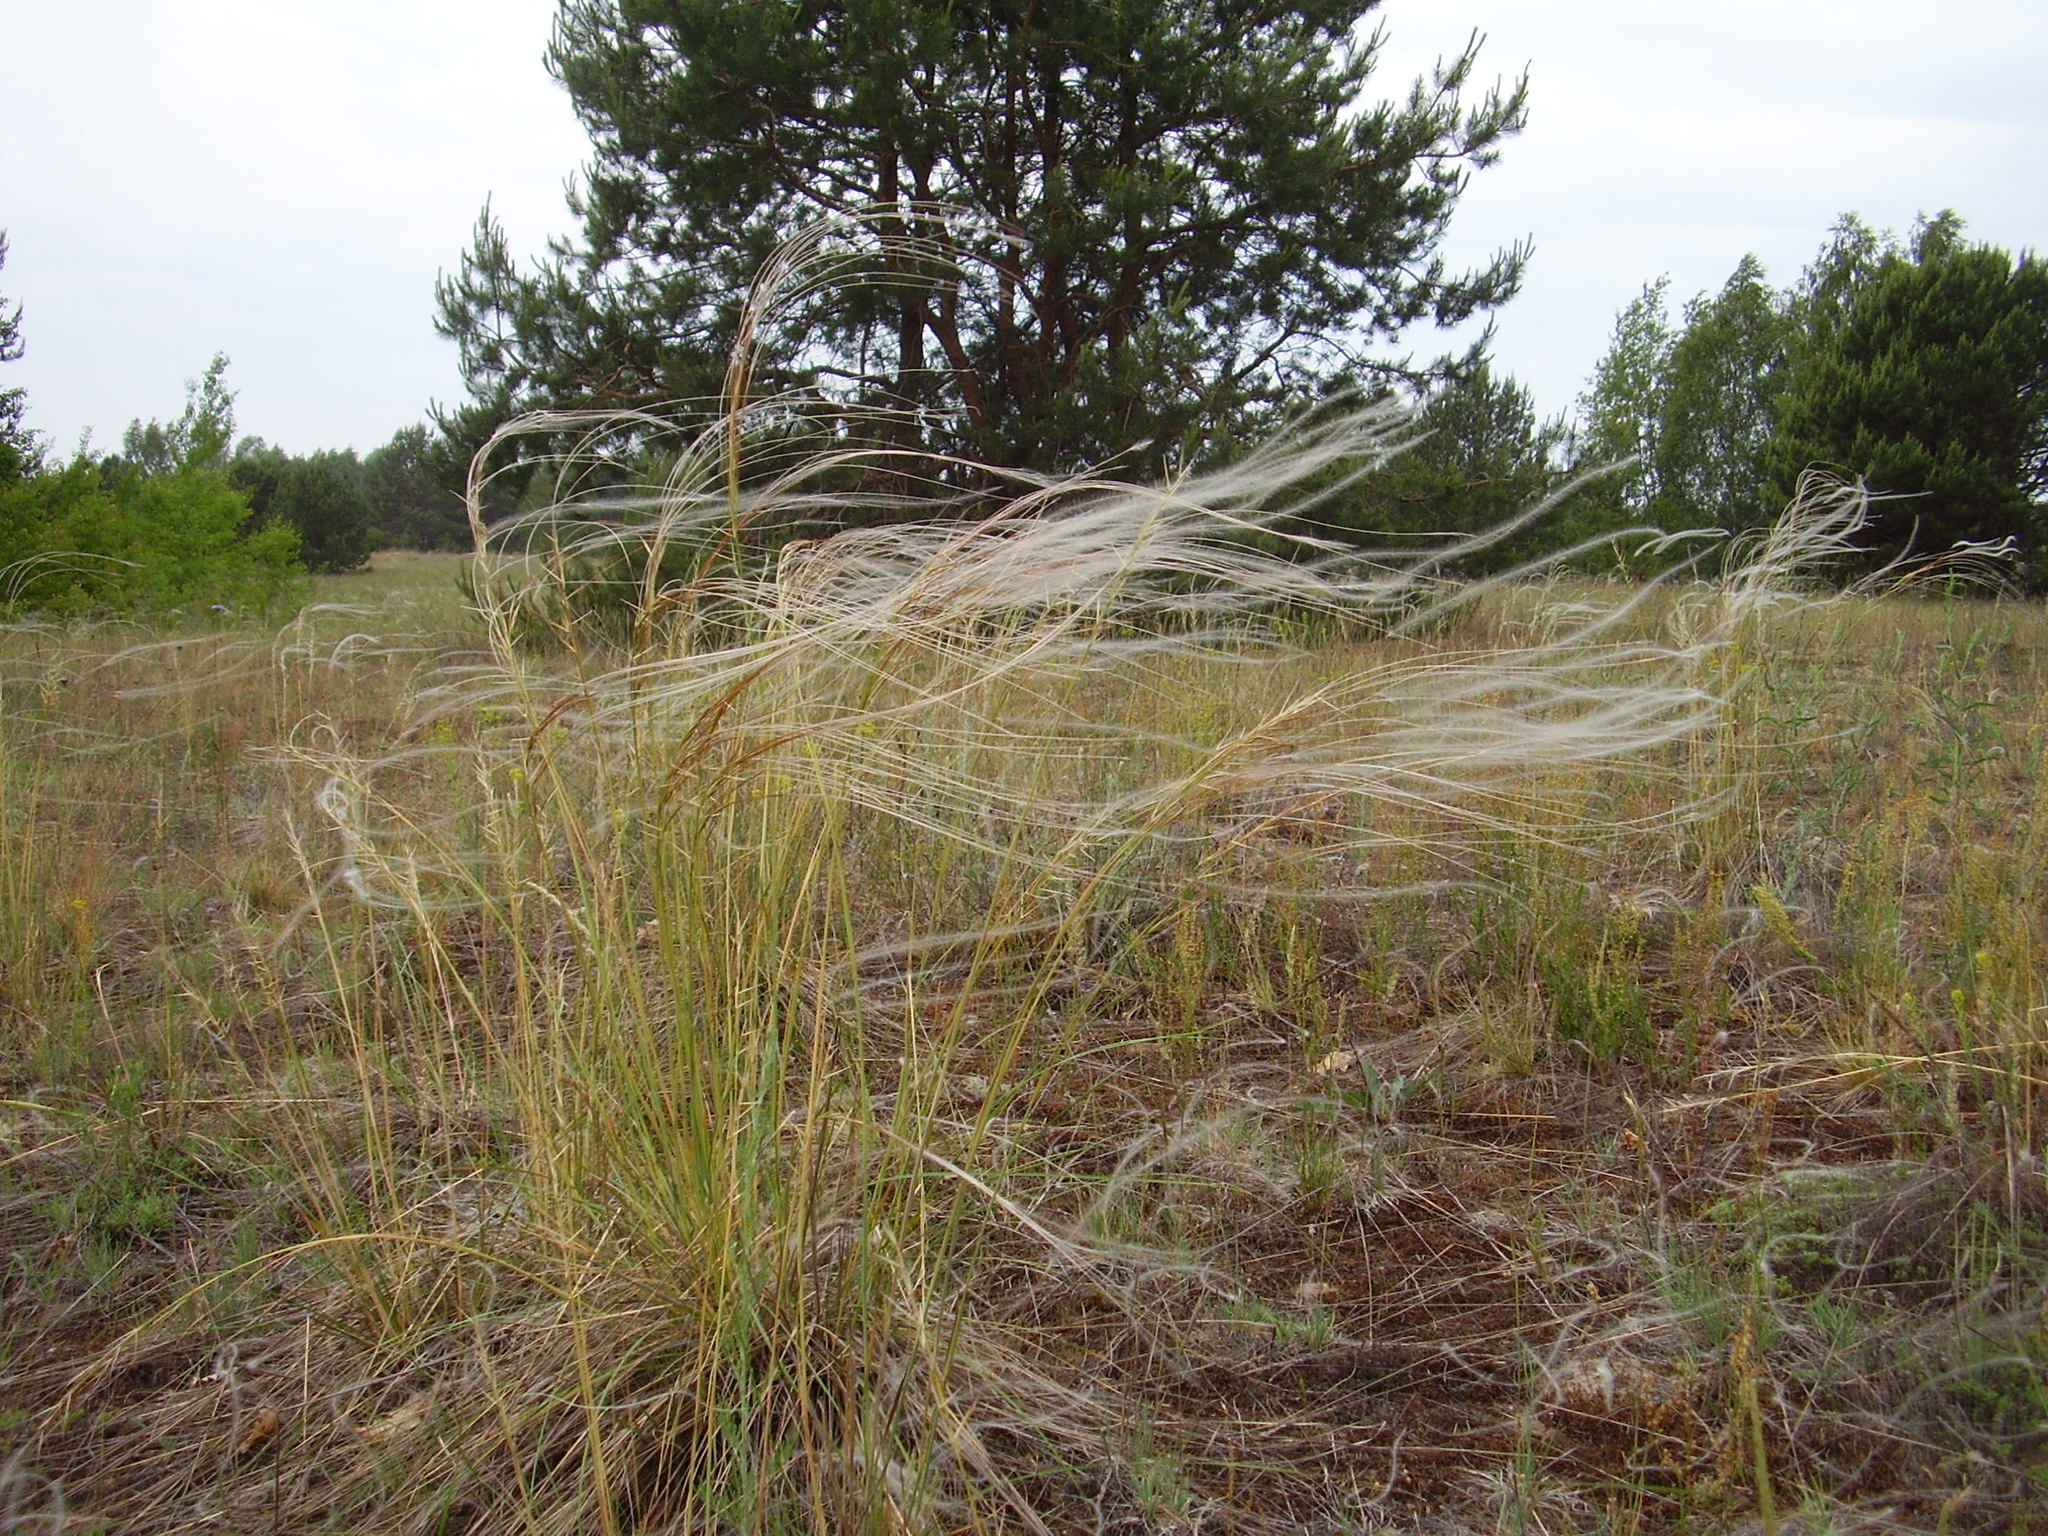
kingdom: Plantae
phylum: Tracheophyta
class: Liliopsida
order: Poales
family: Poaceae
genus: Stipa
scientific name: Stipa borysthenica
